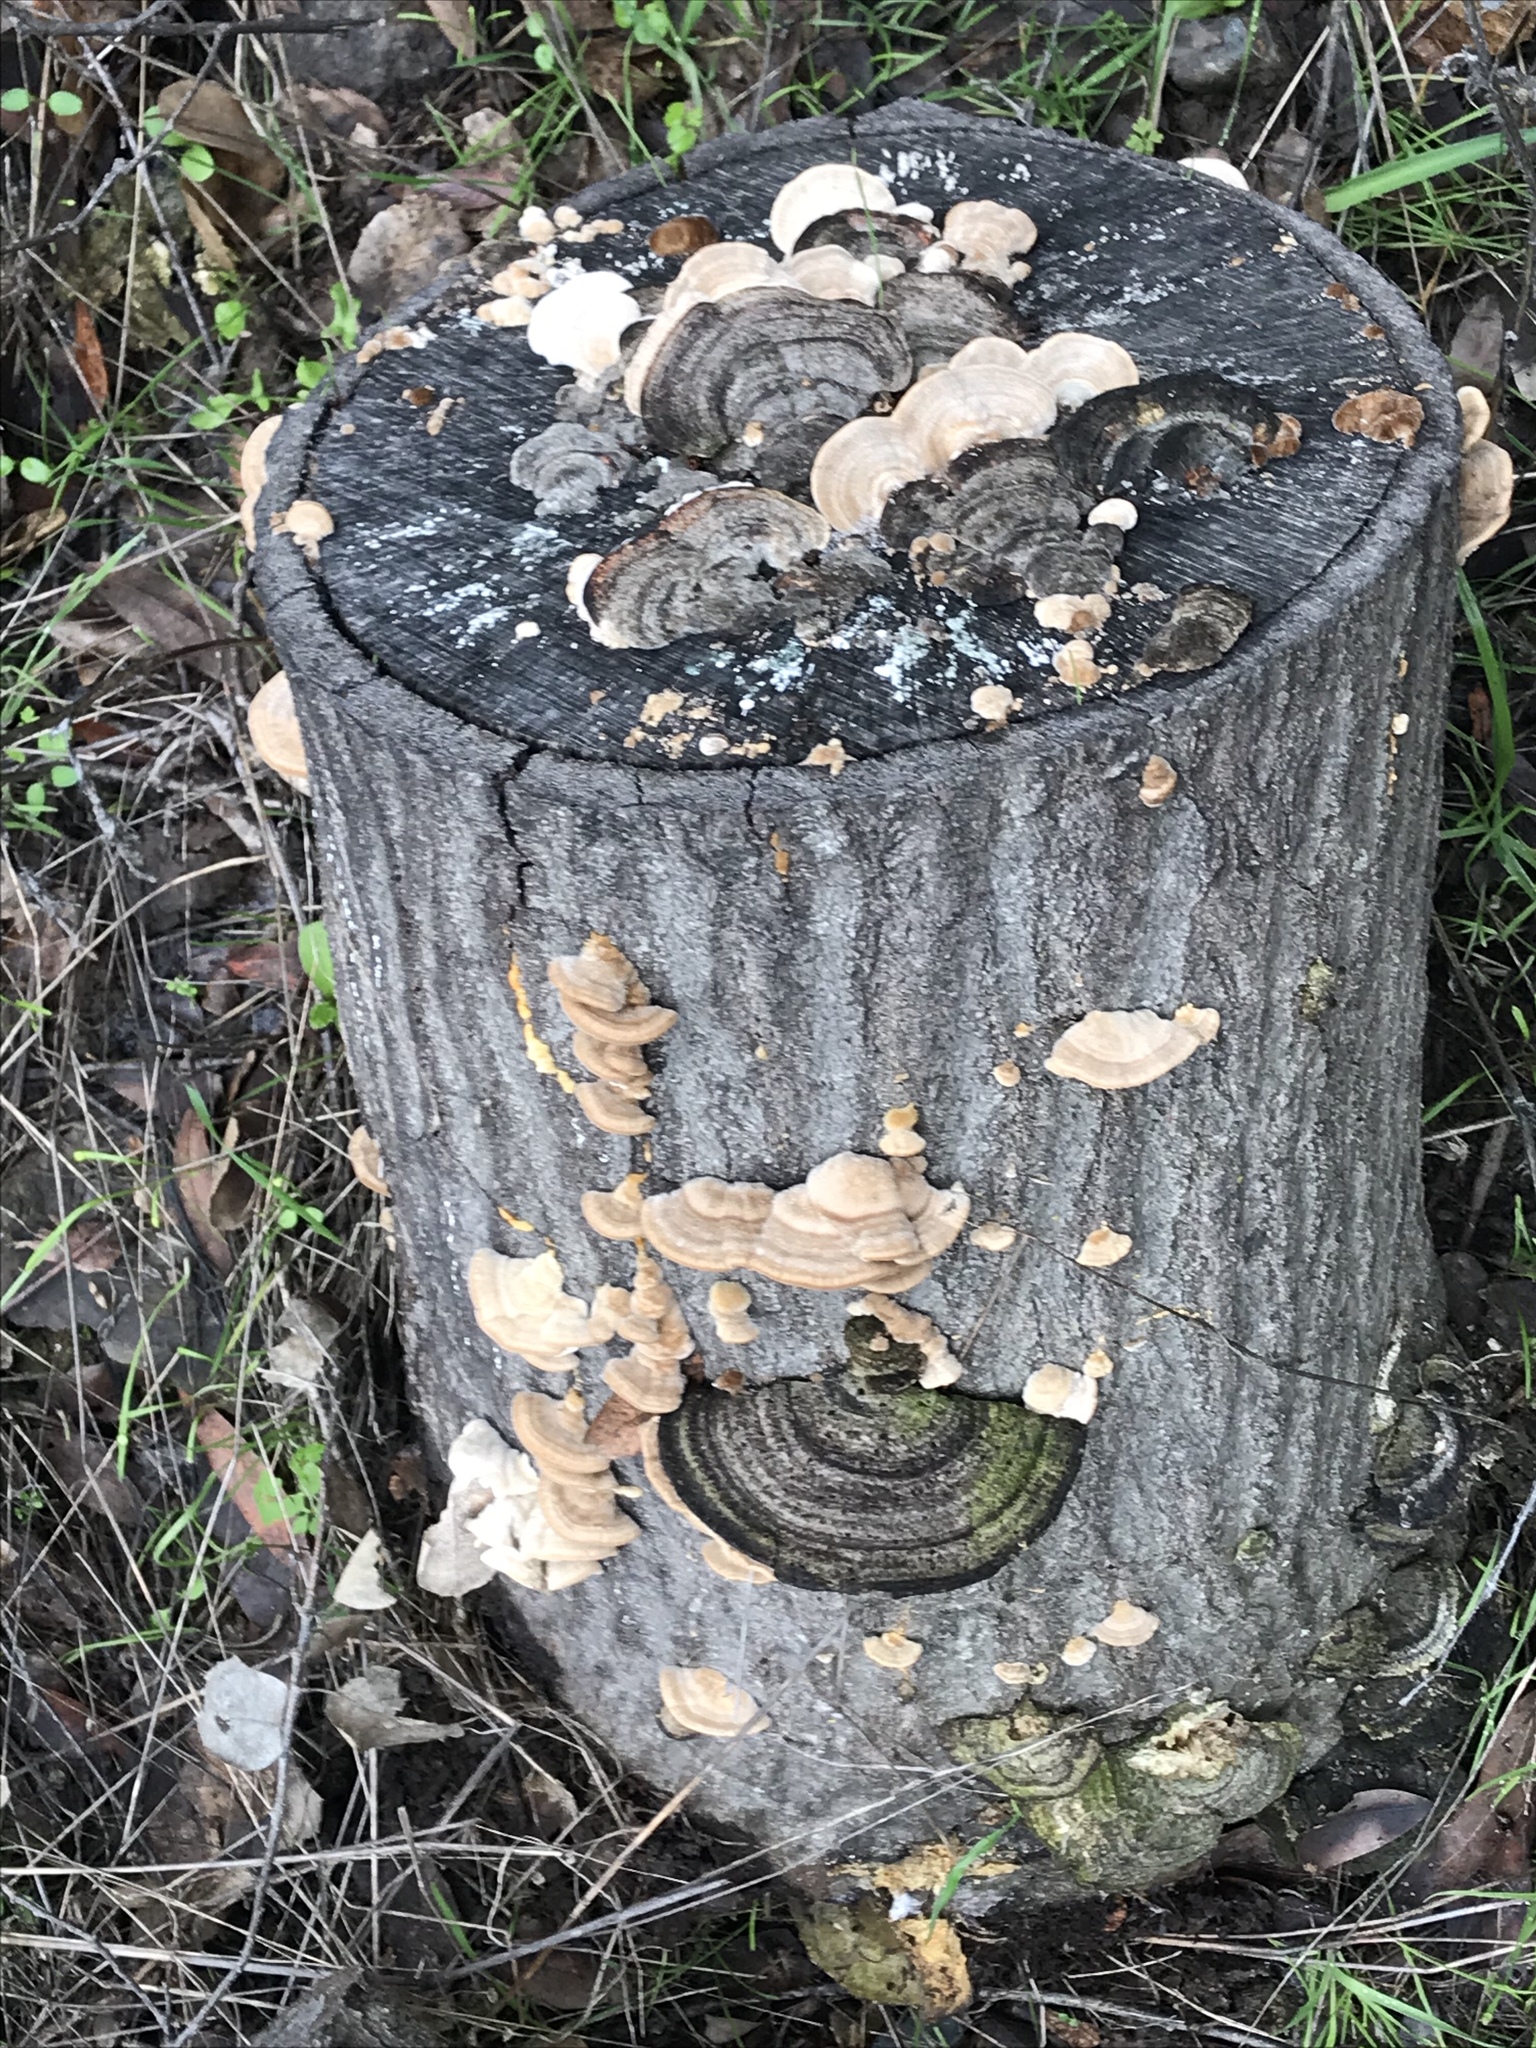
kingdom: Fungi
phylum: Basidiomycota
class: Agaricomycetes
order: Polyporales
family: Polyporaceae
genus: Lenzites
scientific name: Lenzites betulinus
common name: Birch mazegill
